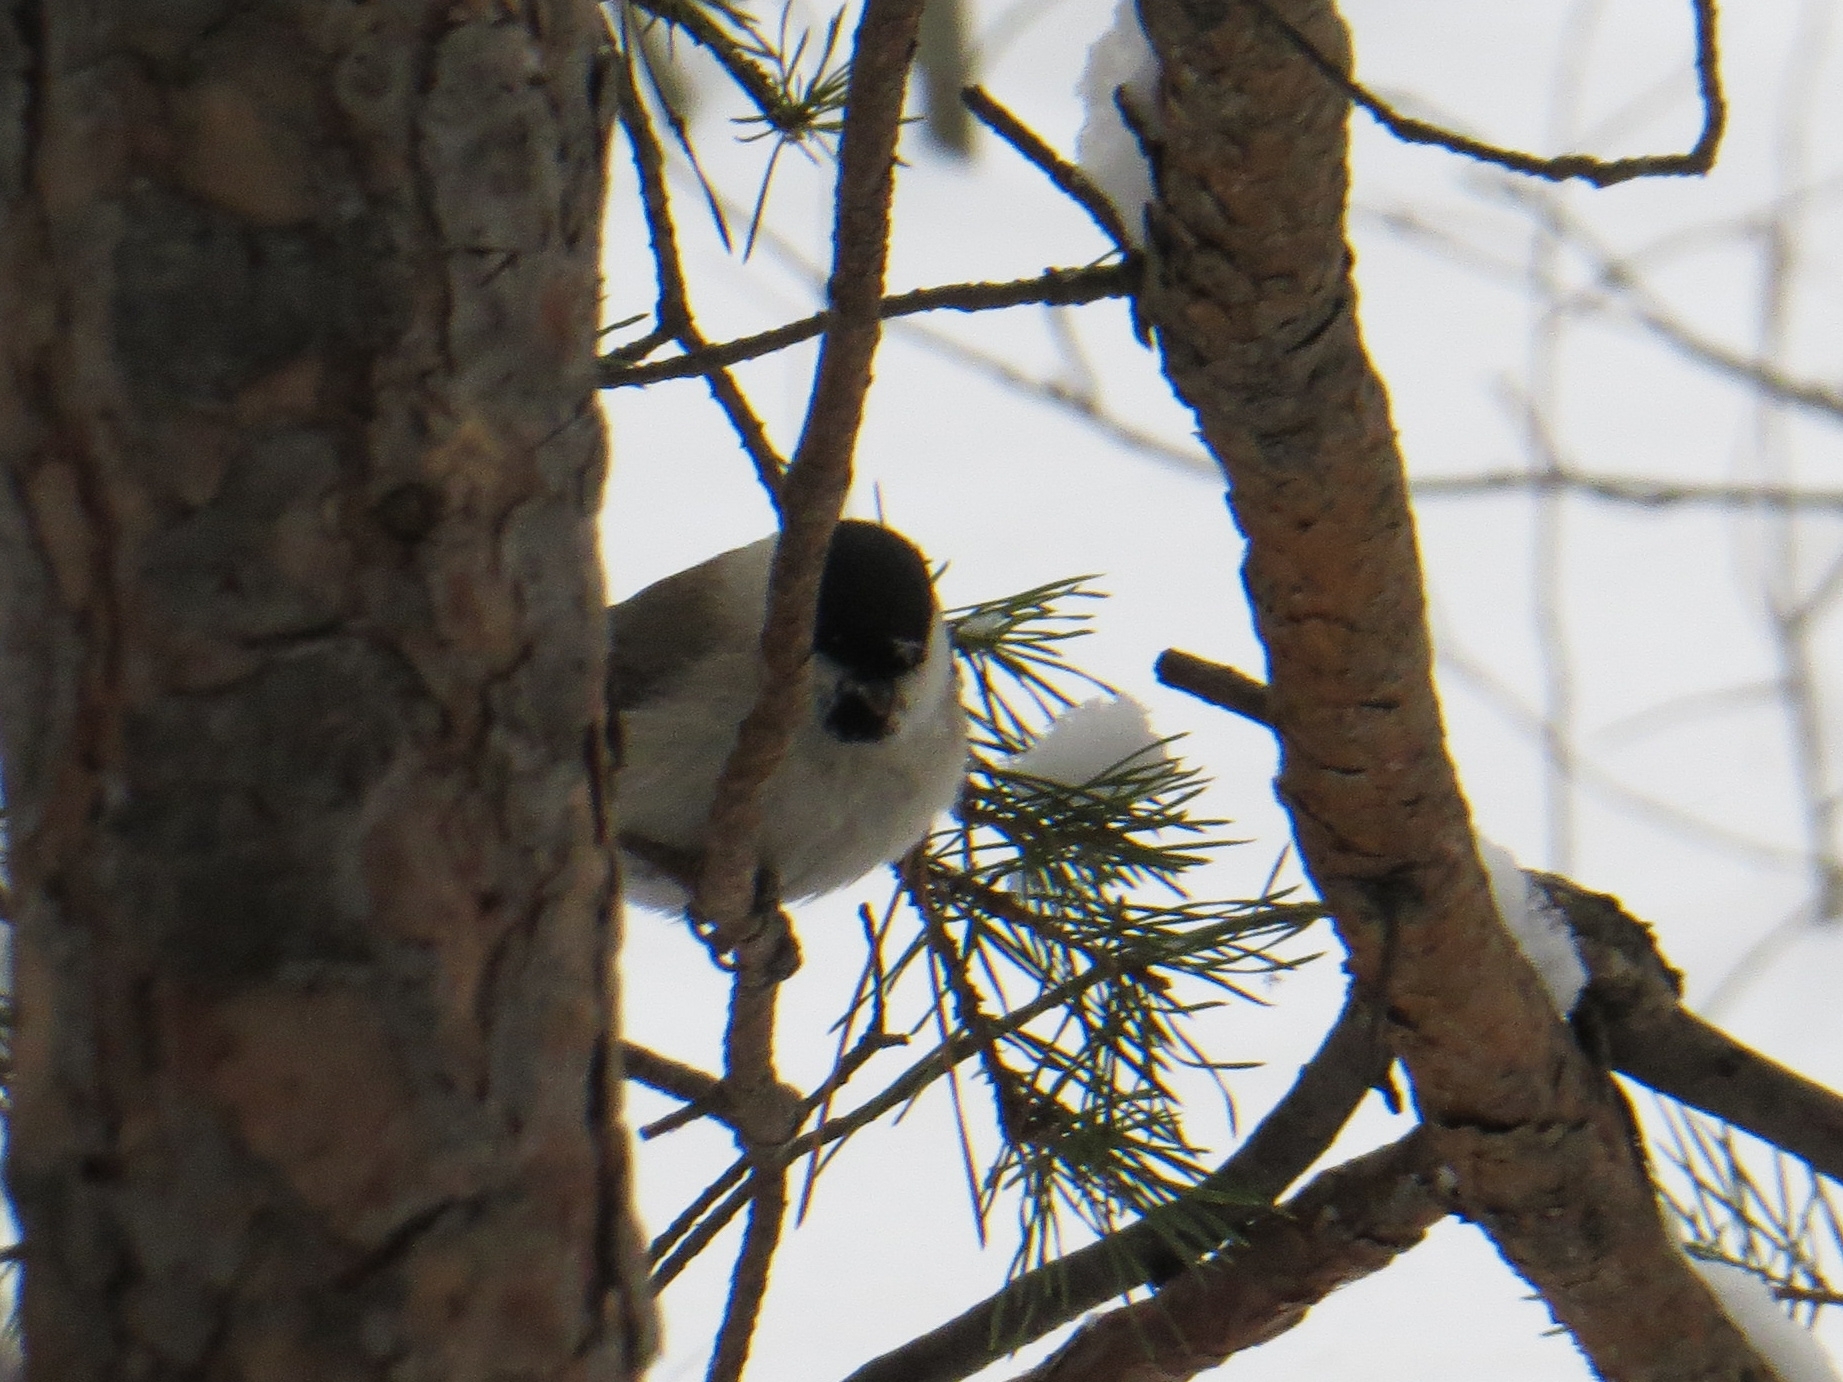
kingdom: Animalia
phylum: Chordata
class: Aves
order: Passeriformes
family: Paridae
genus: Poecile
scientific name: Poecile palustris
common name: Marsh tit
